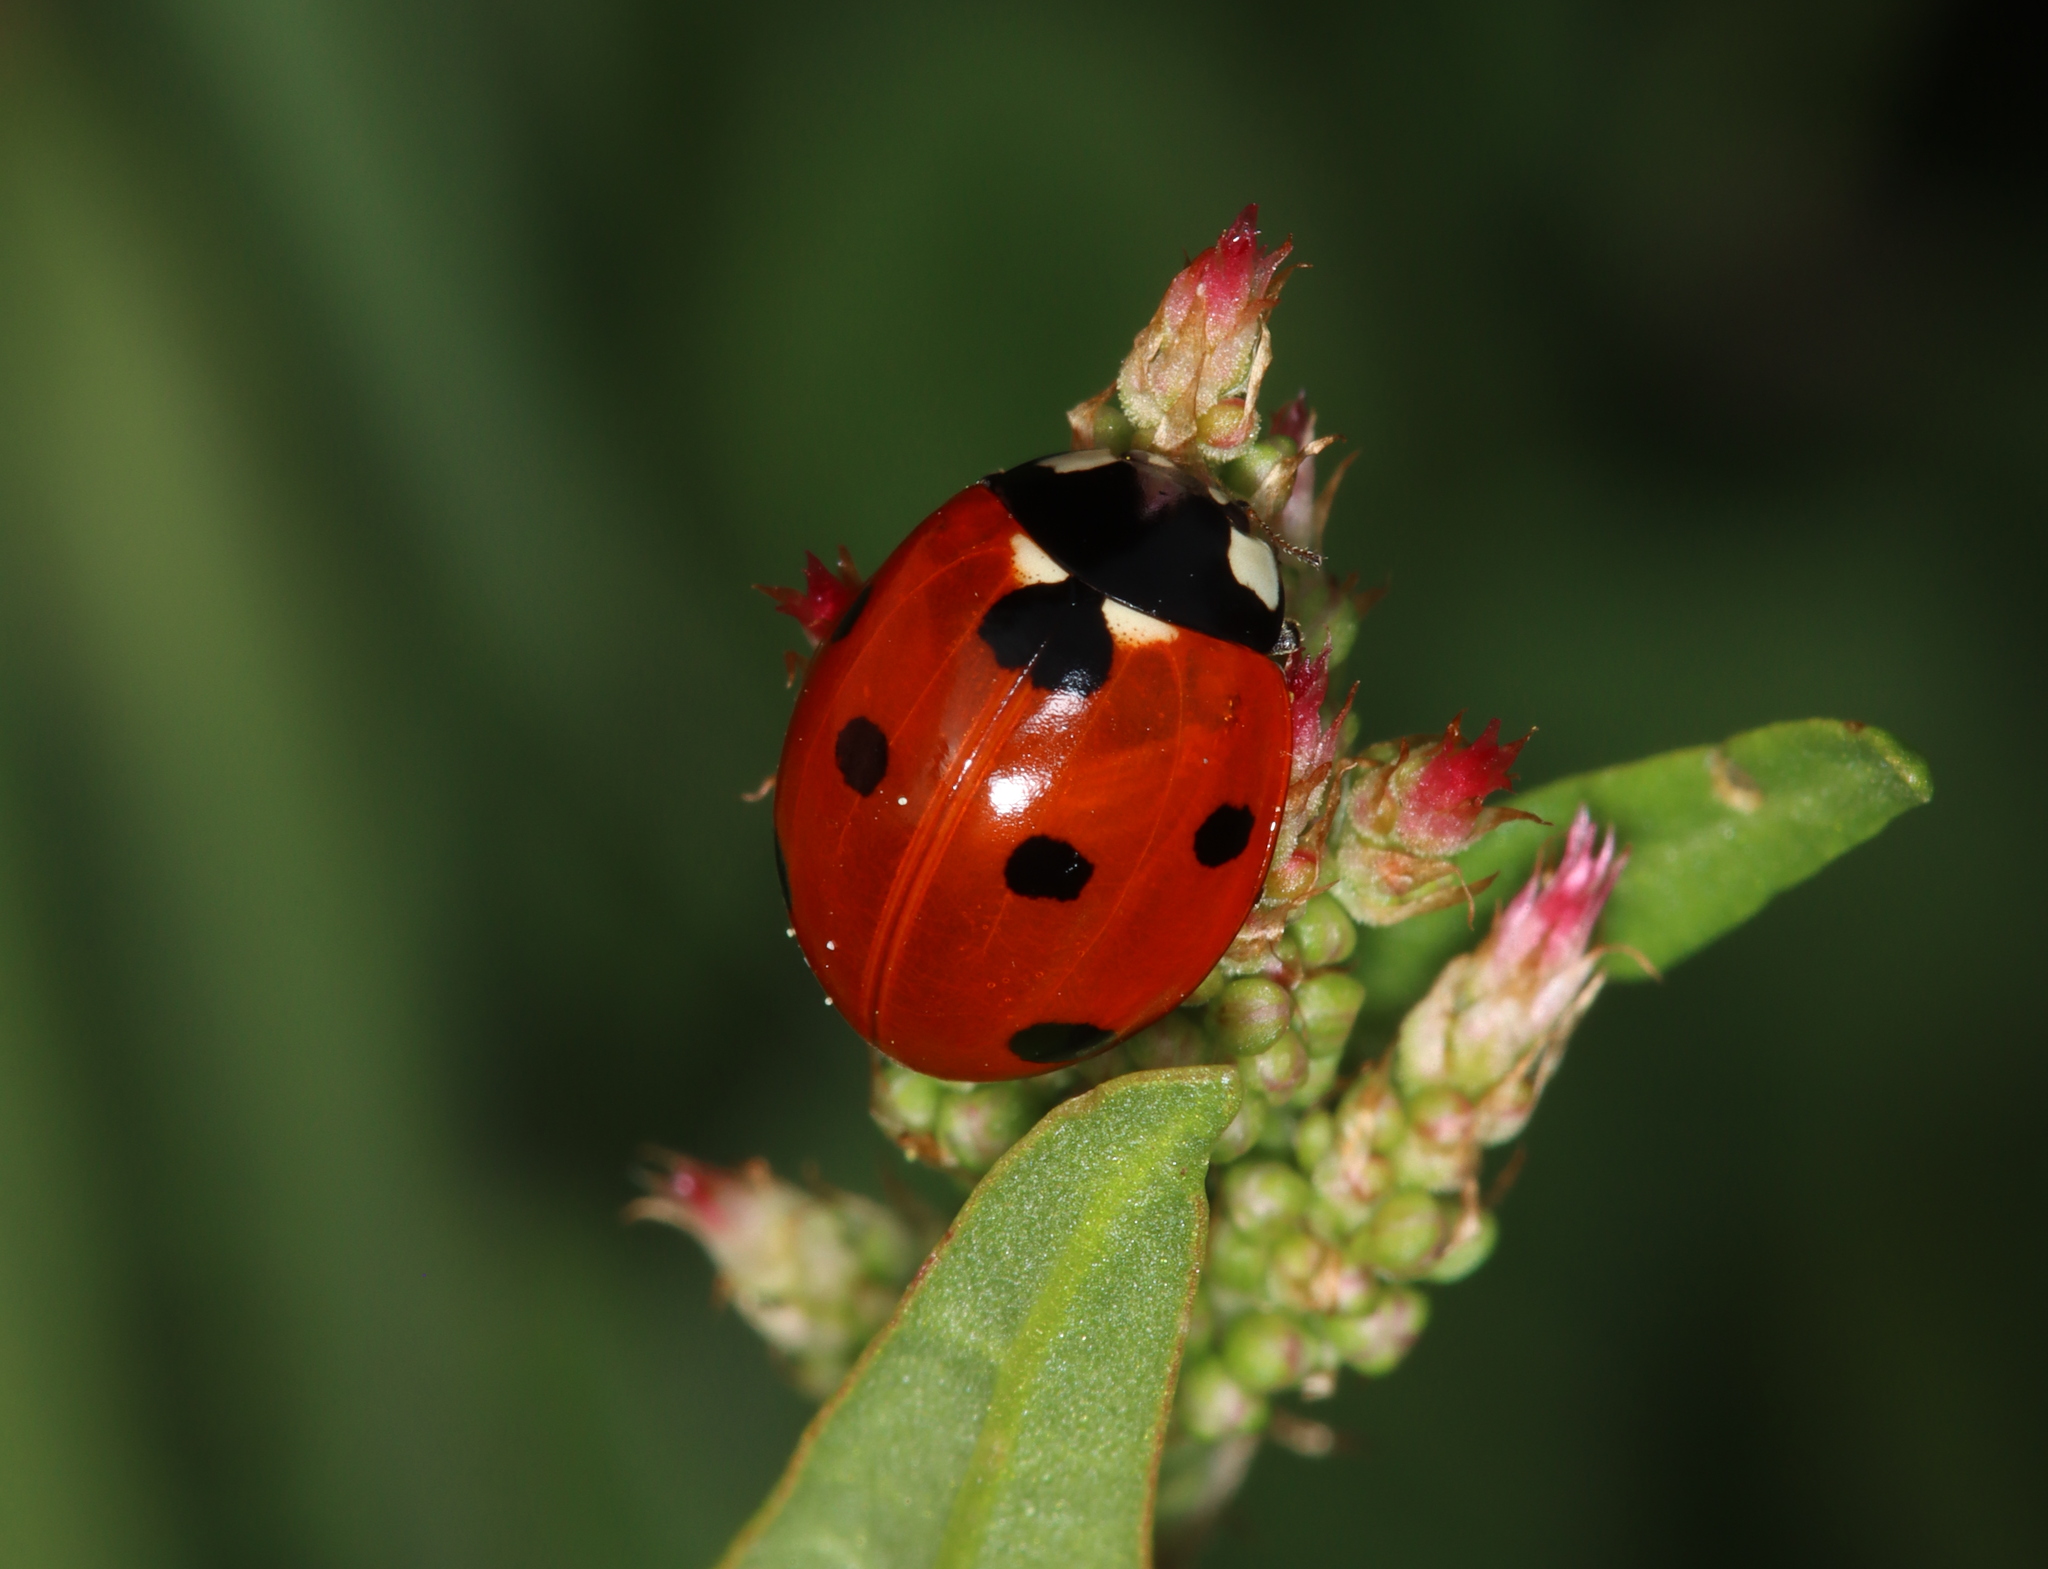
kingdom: Animalia
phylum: Arthropoda
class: Insecta
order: Coleoptera
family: Coccinellidae
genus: Coccinella
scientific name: Coccinella septempunctata
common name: Sevenspotted lady beetle
